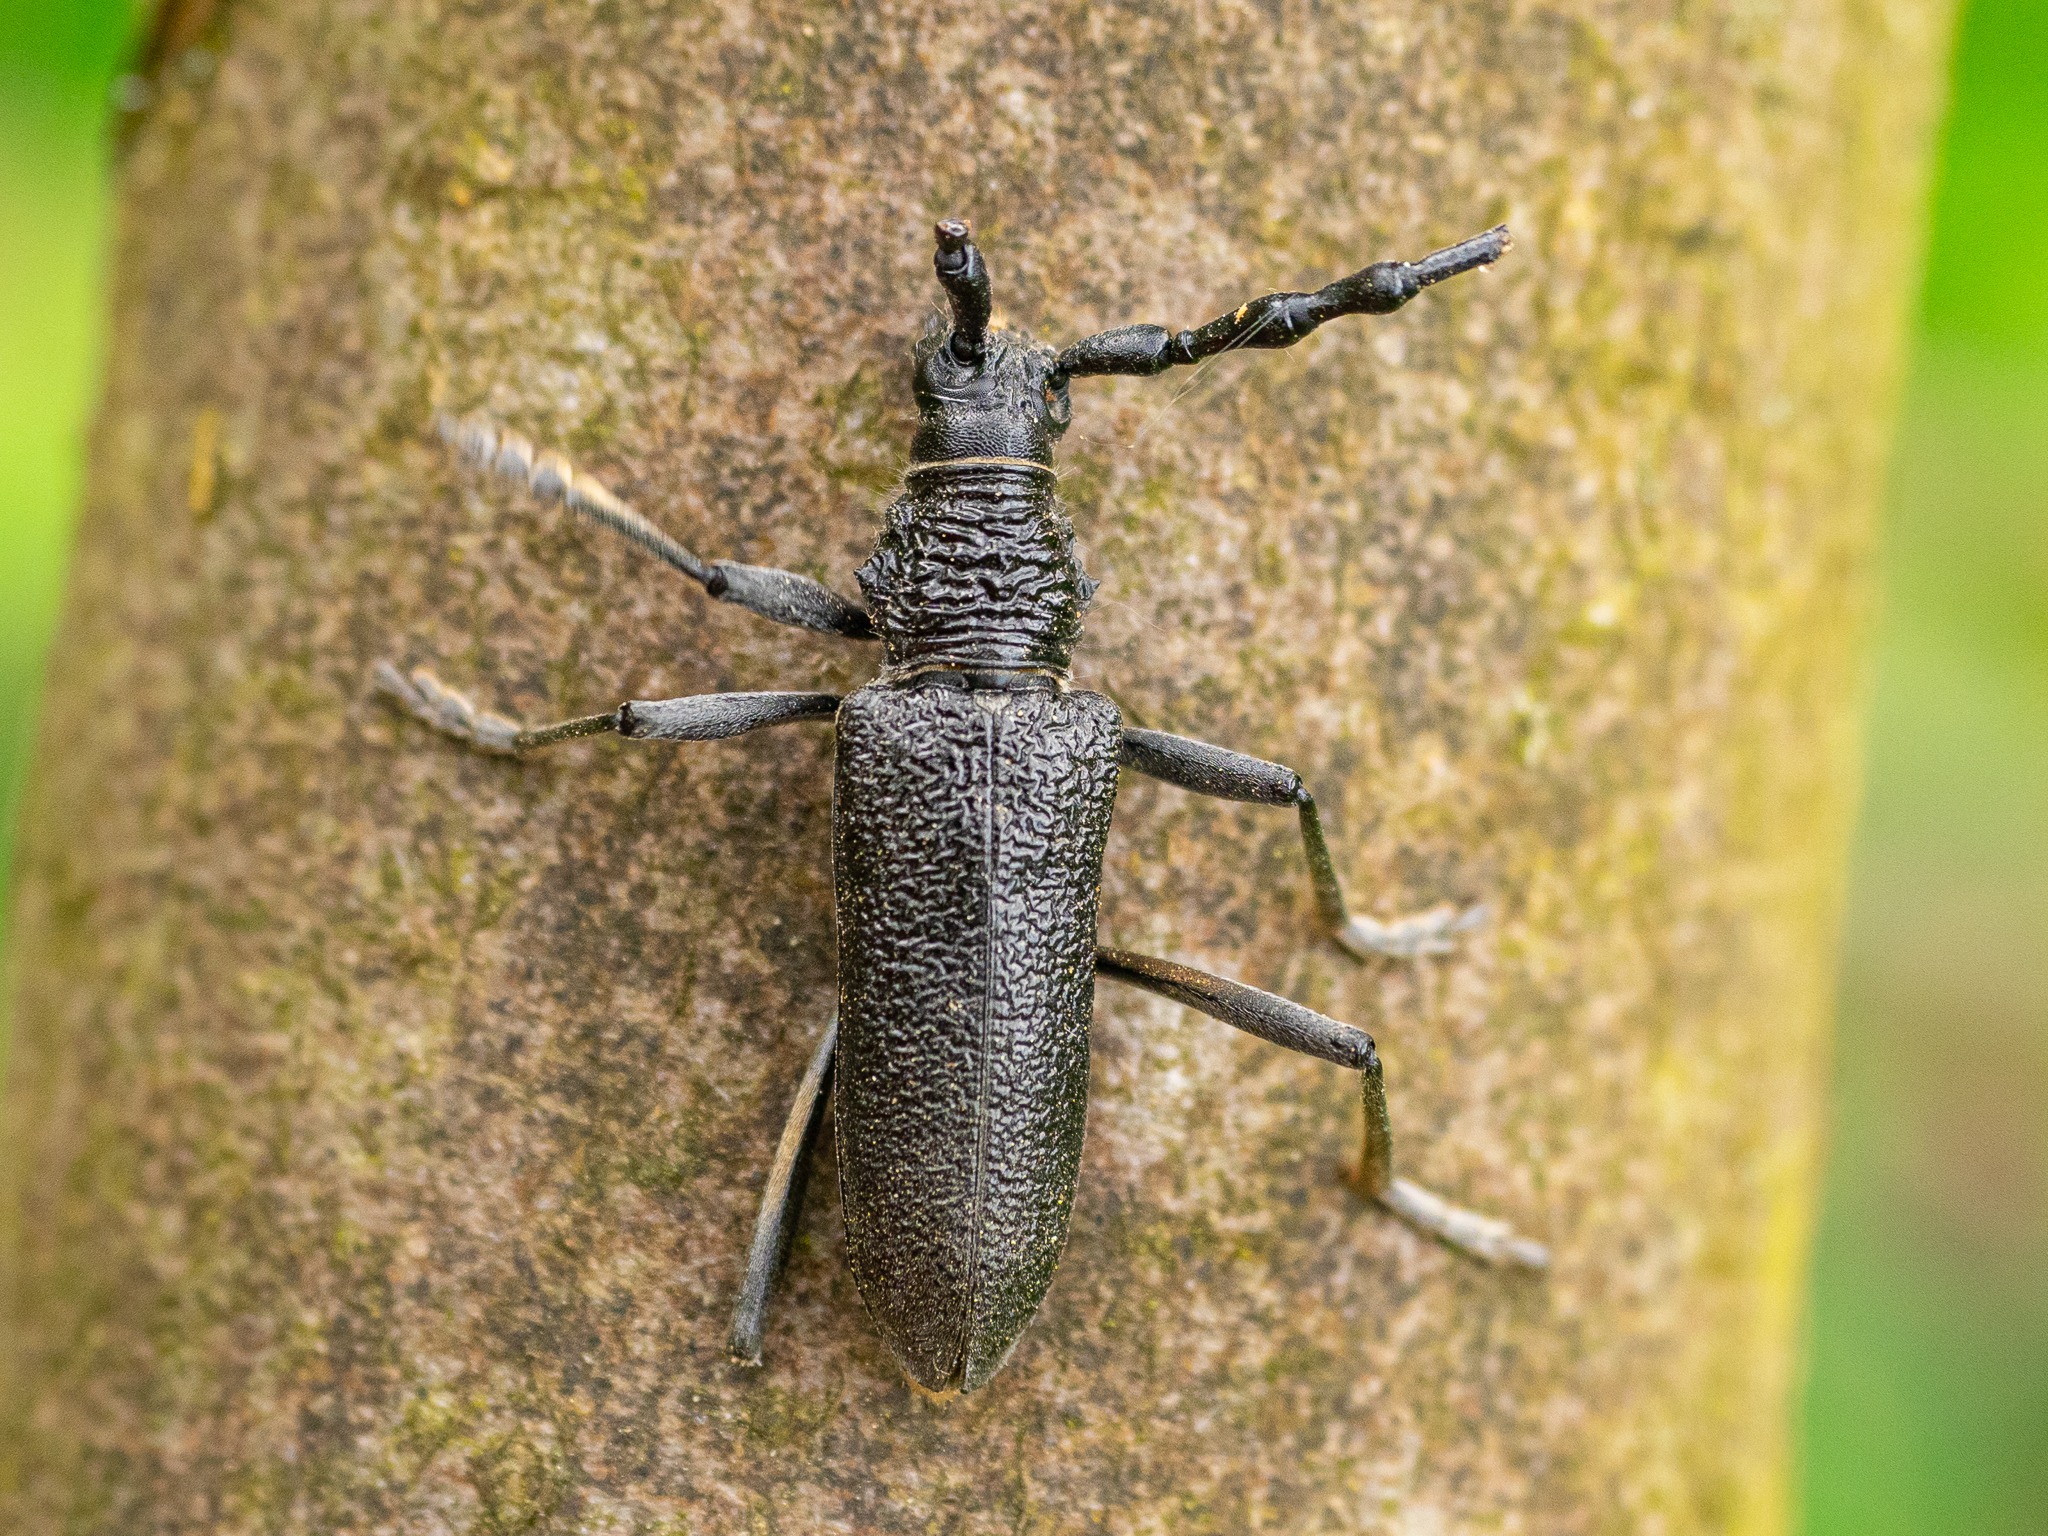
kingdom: Animalia
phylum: Arthropoda
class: Insecta
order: Coleoptera
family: Cerambycidae
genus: Cerambyx
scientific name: Cerambyx scopolii
